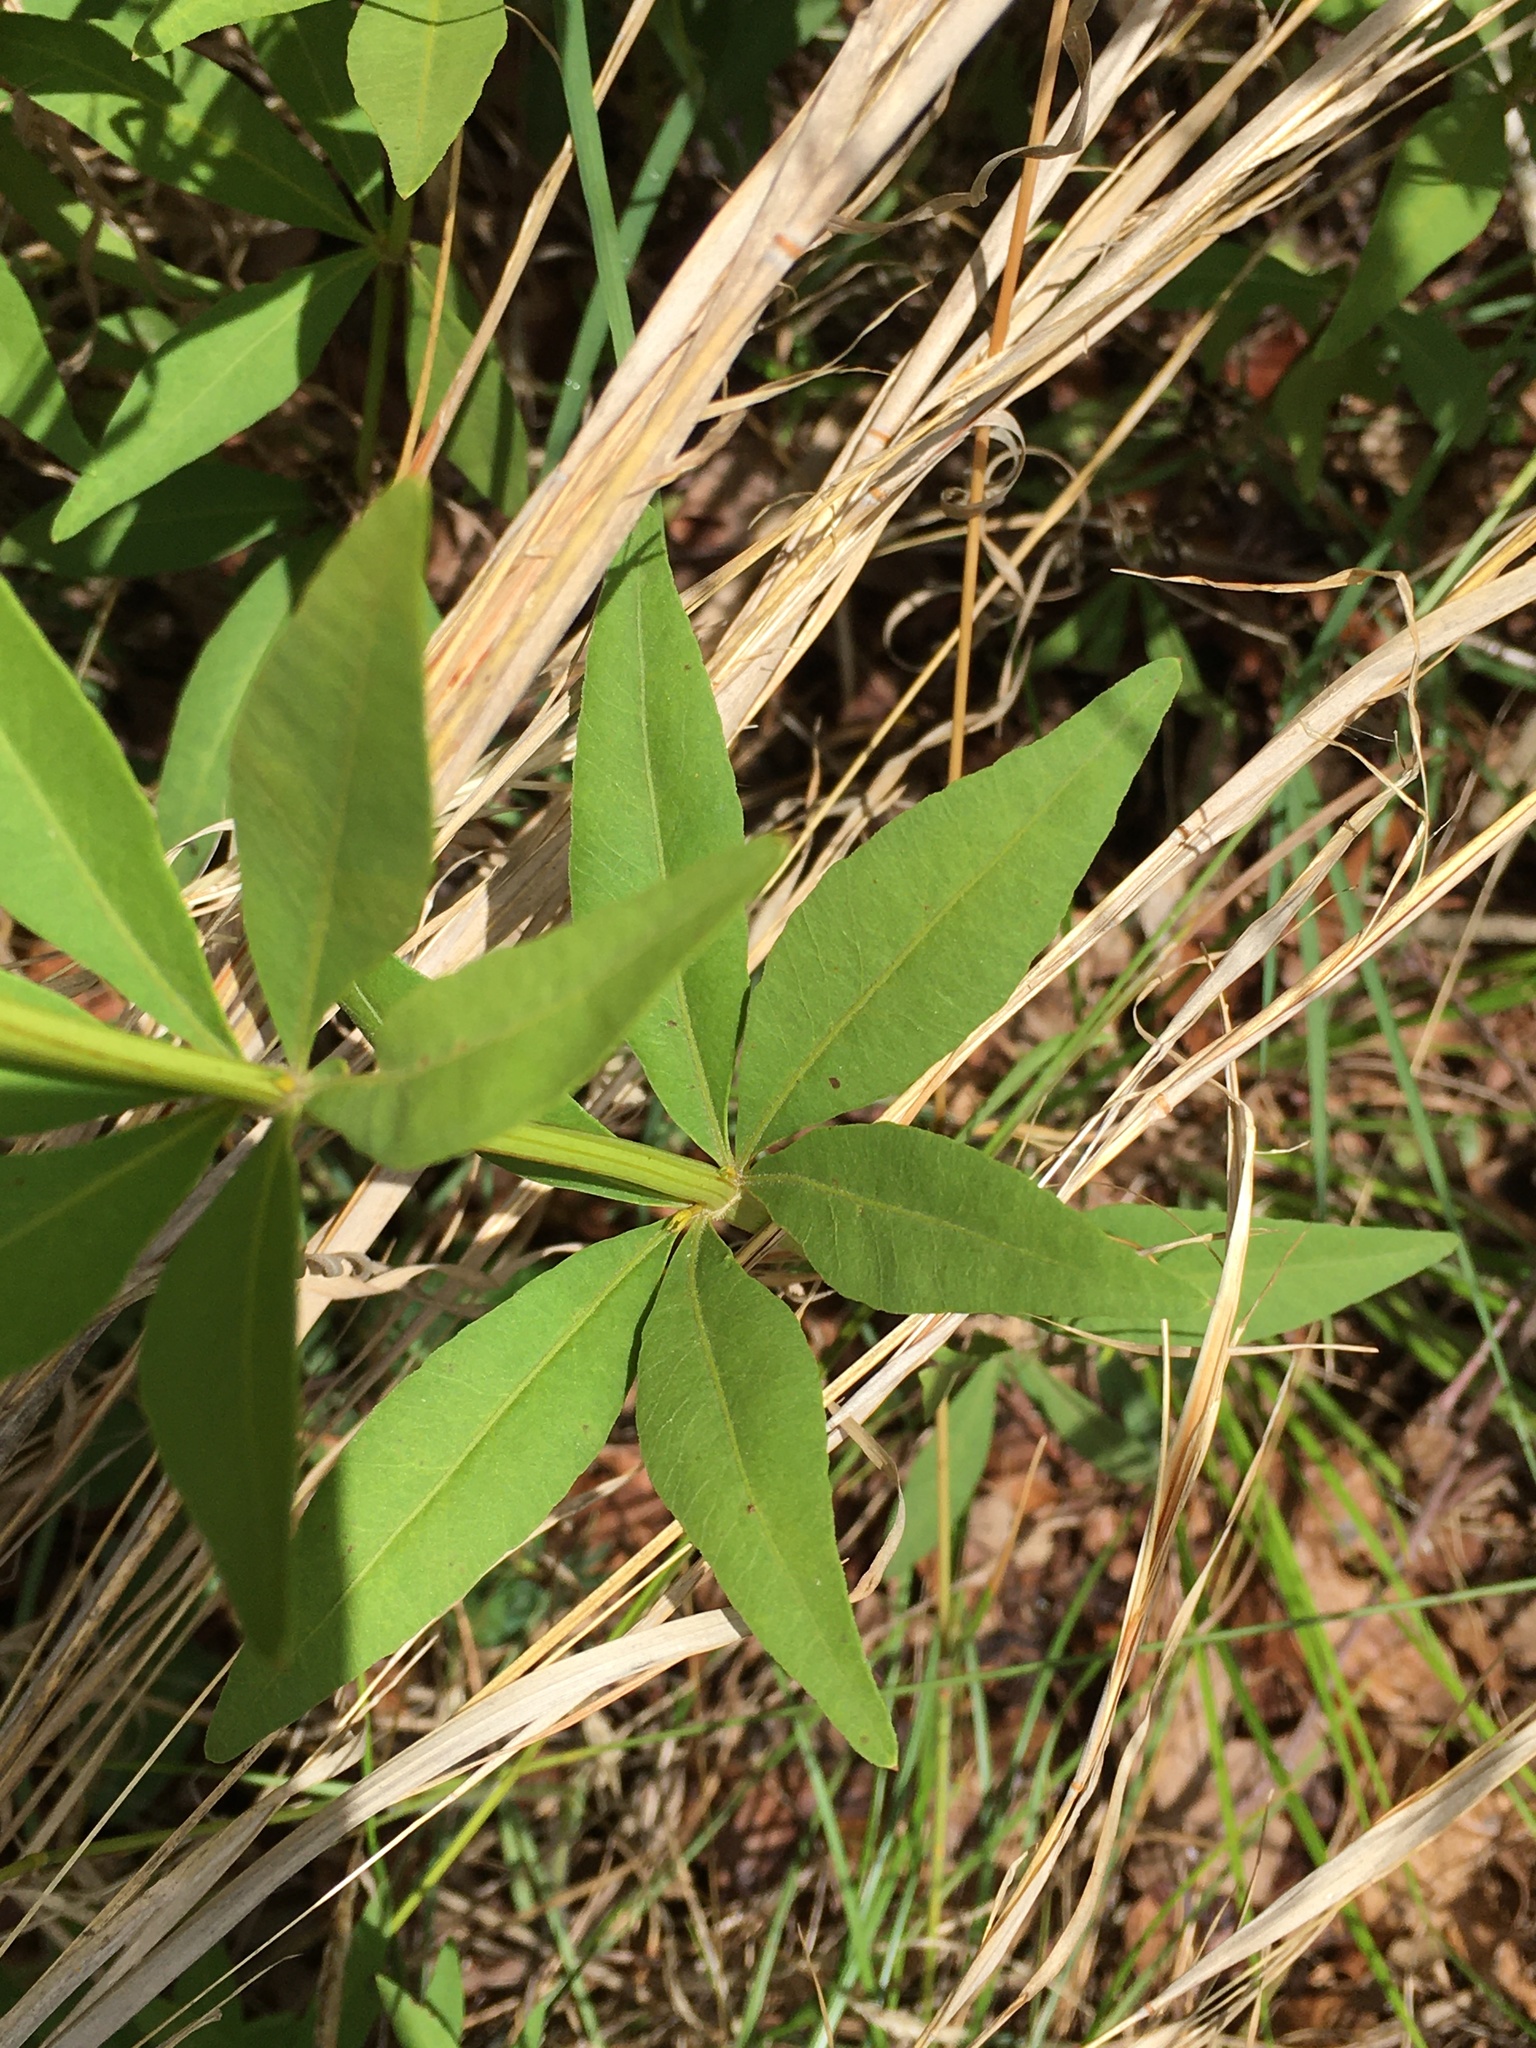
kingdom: Plantae
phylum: Tracheophyta
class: Magnoliopsida
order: Asterales
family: Asteraceae
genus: Coreopsis
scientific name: Coreopsis major
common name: Forest tickseed
